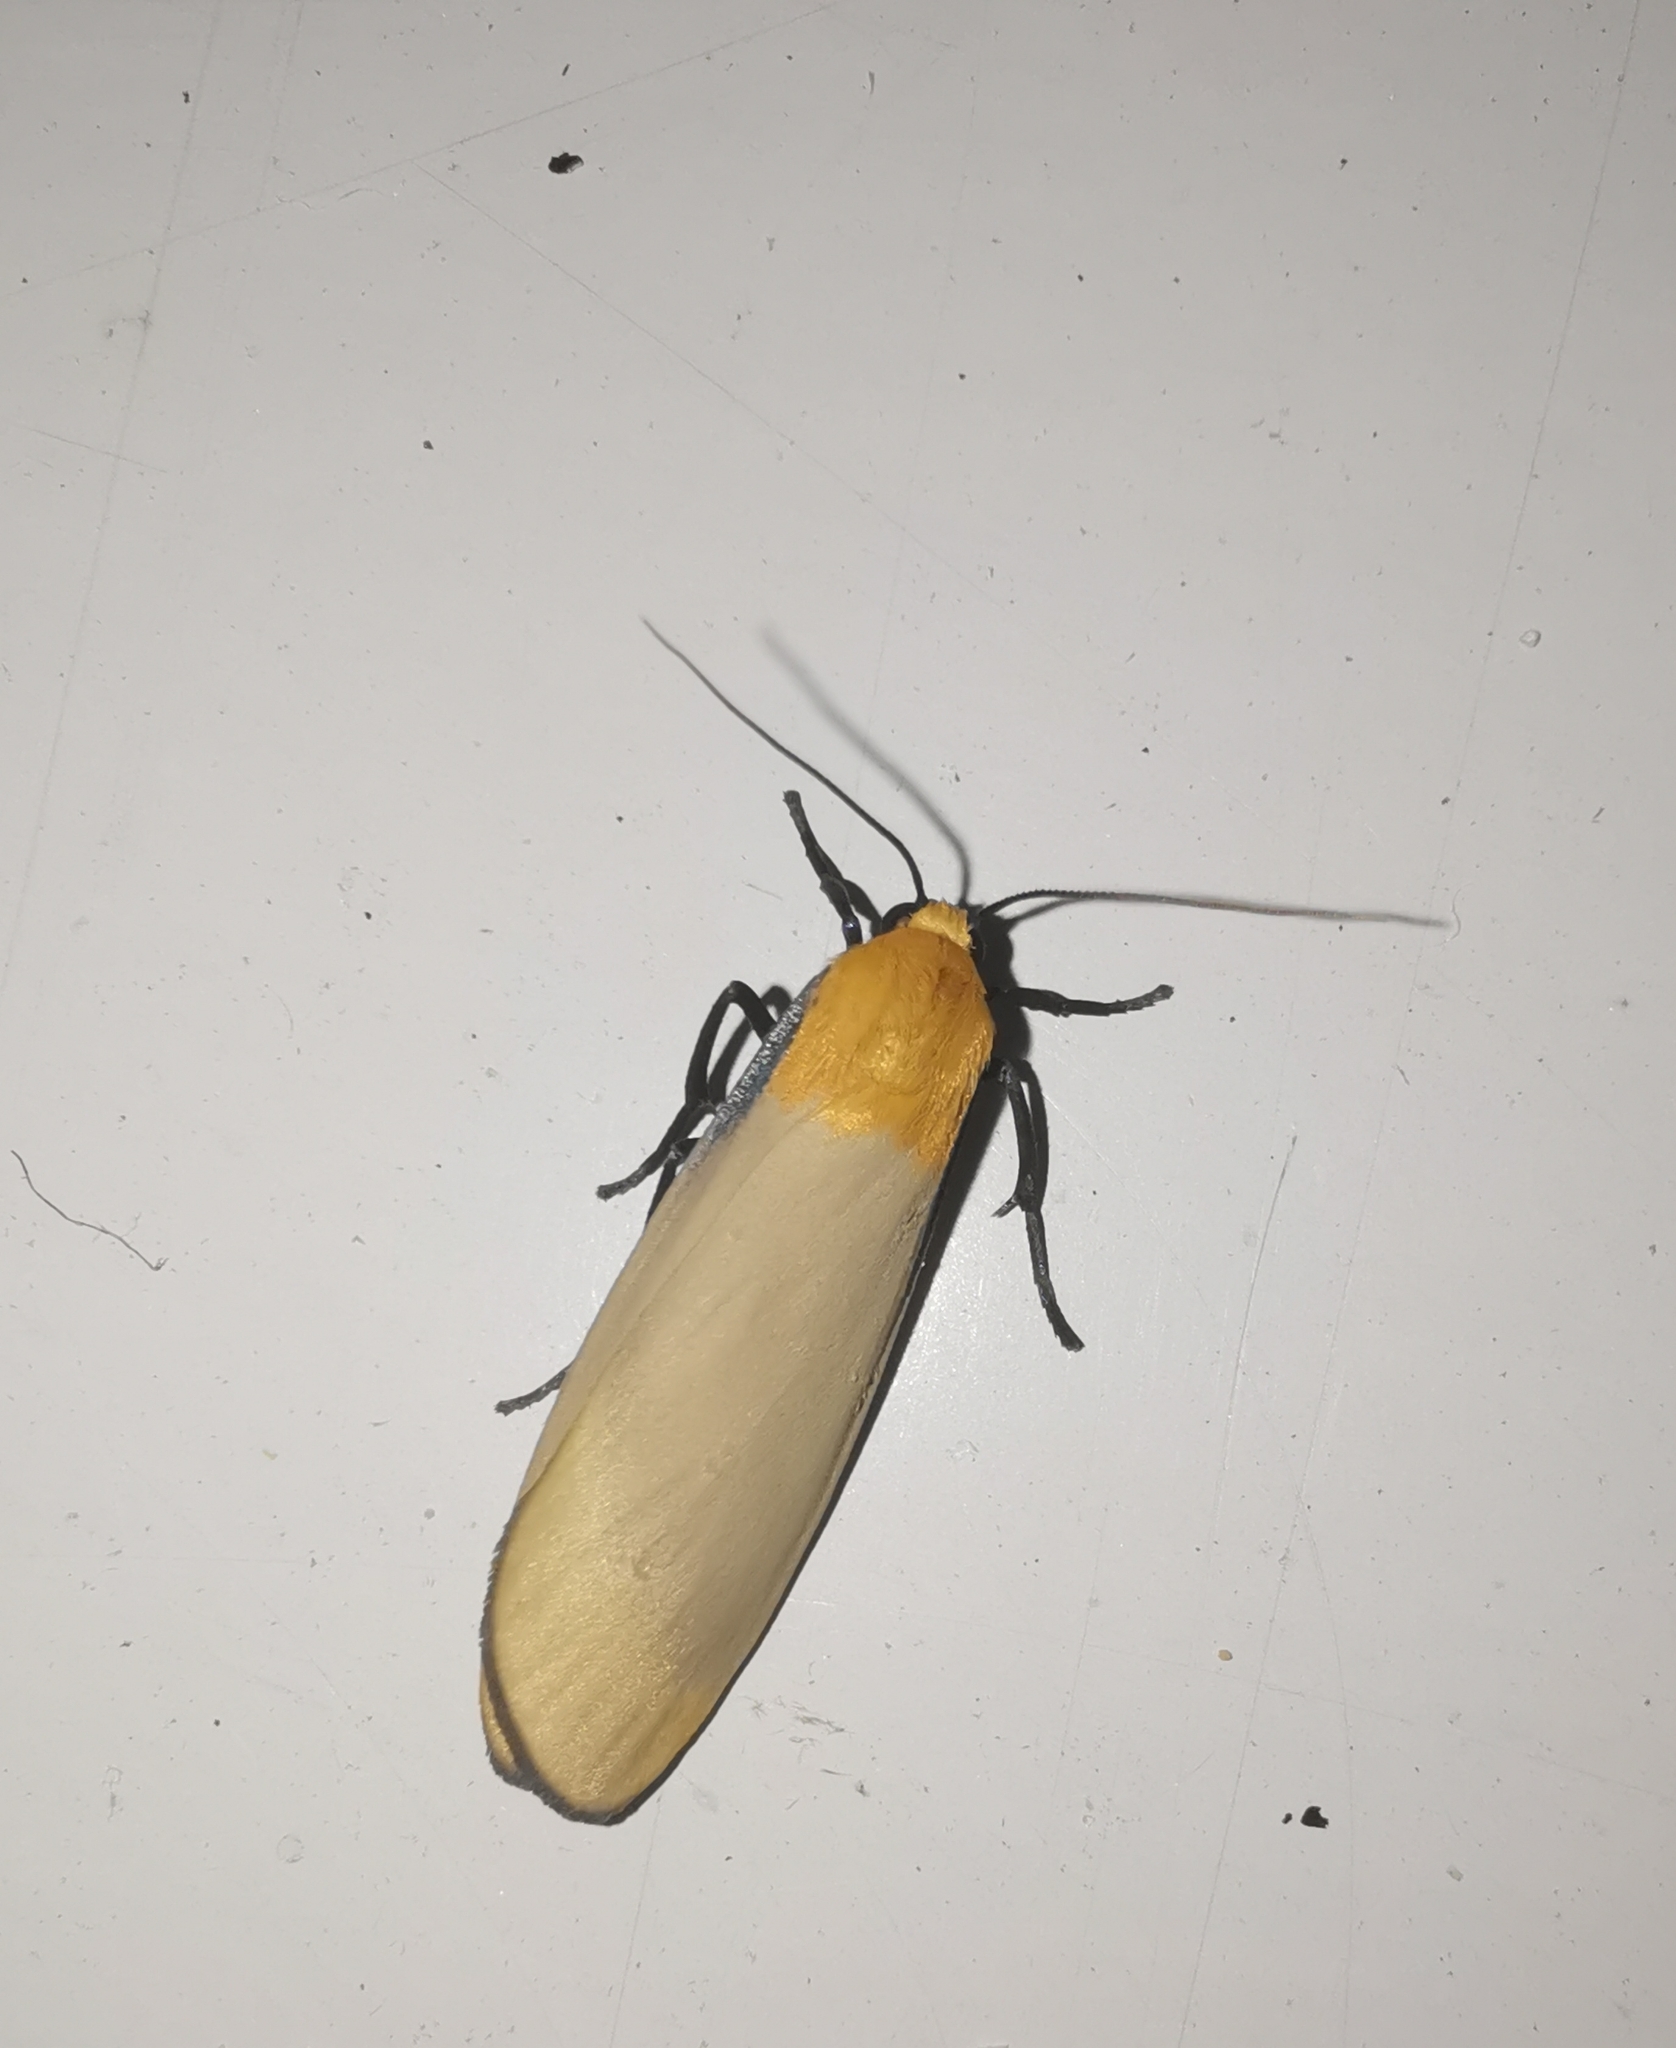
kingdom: Animalia
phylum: Arthropoda
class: Insecta
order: Lepidoptera
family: Erebidae
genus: Lithosia
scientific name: Lithosia quadra
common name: Four-spotted footman
